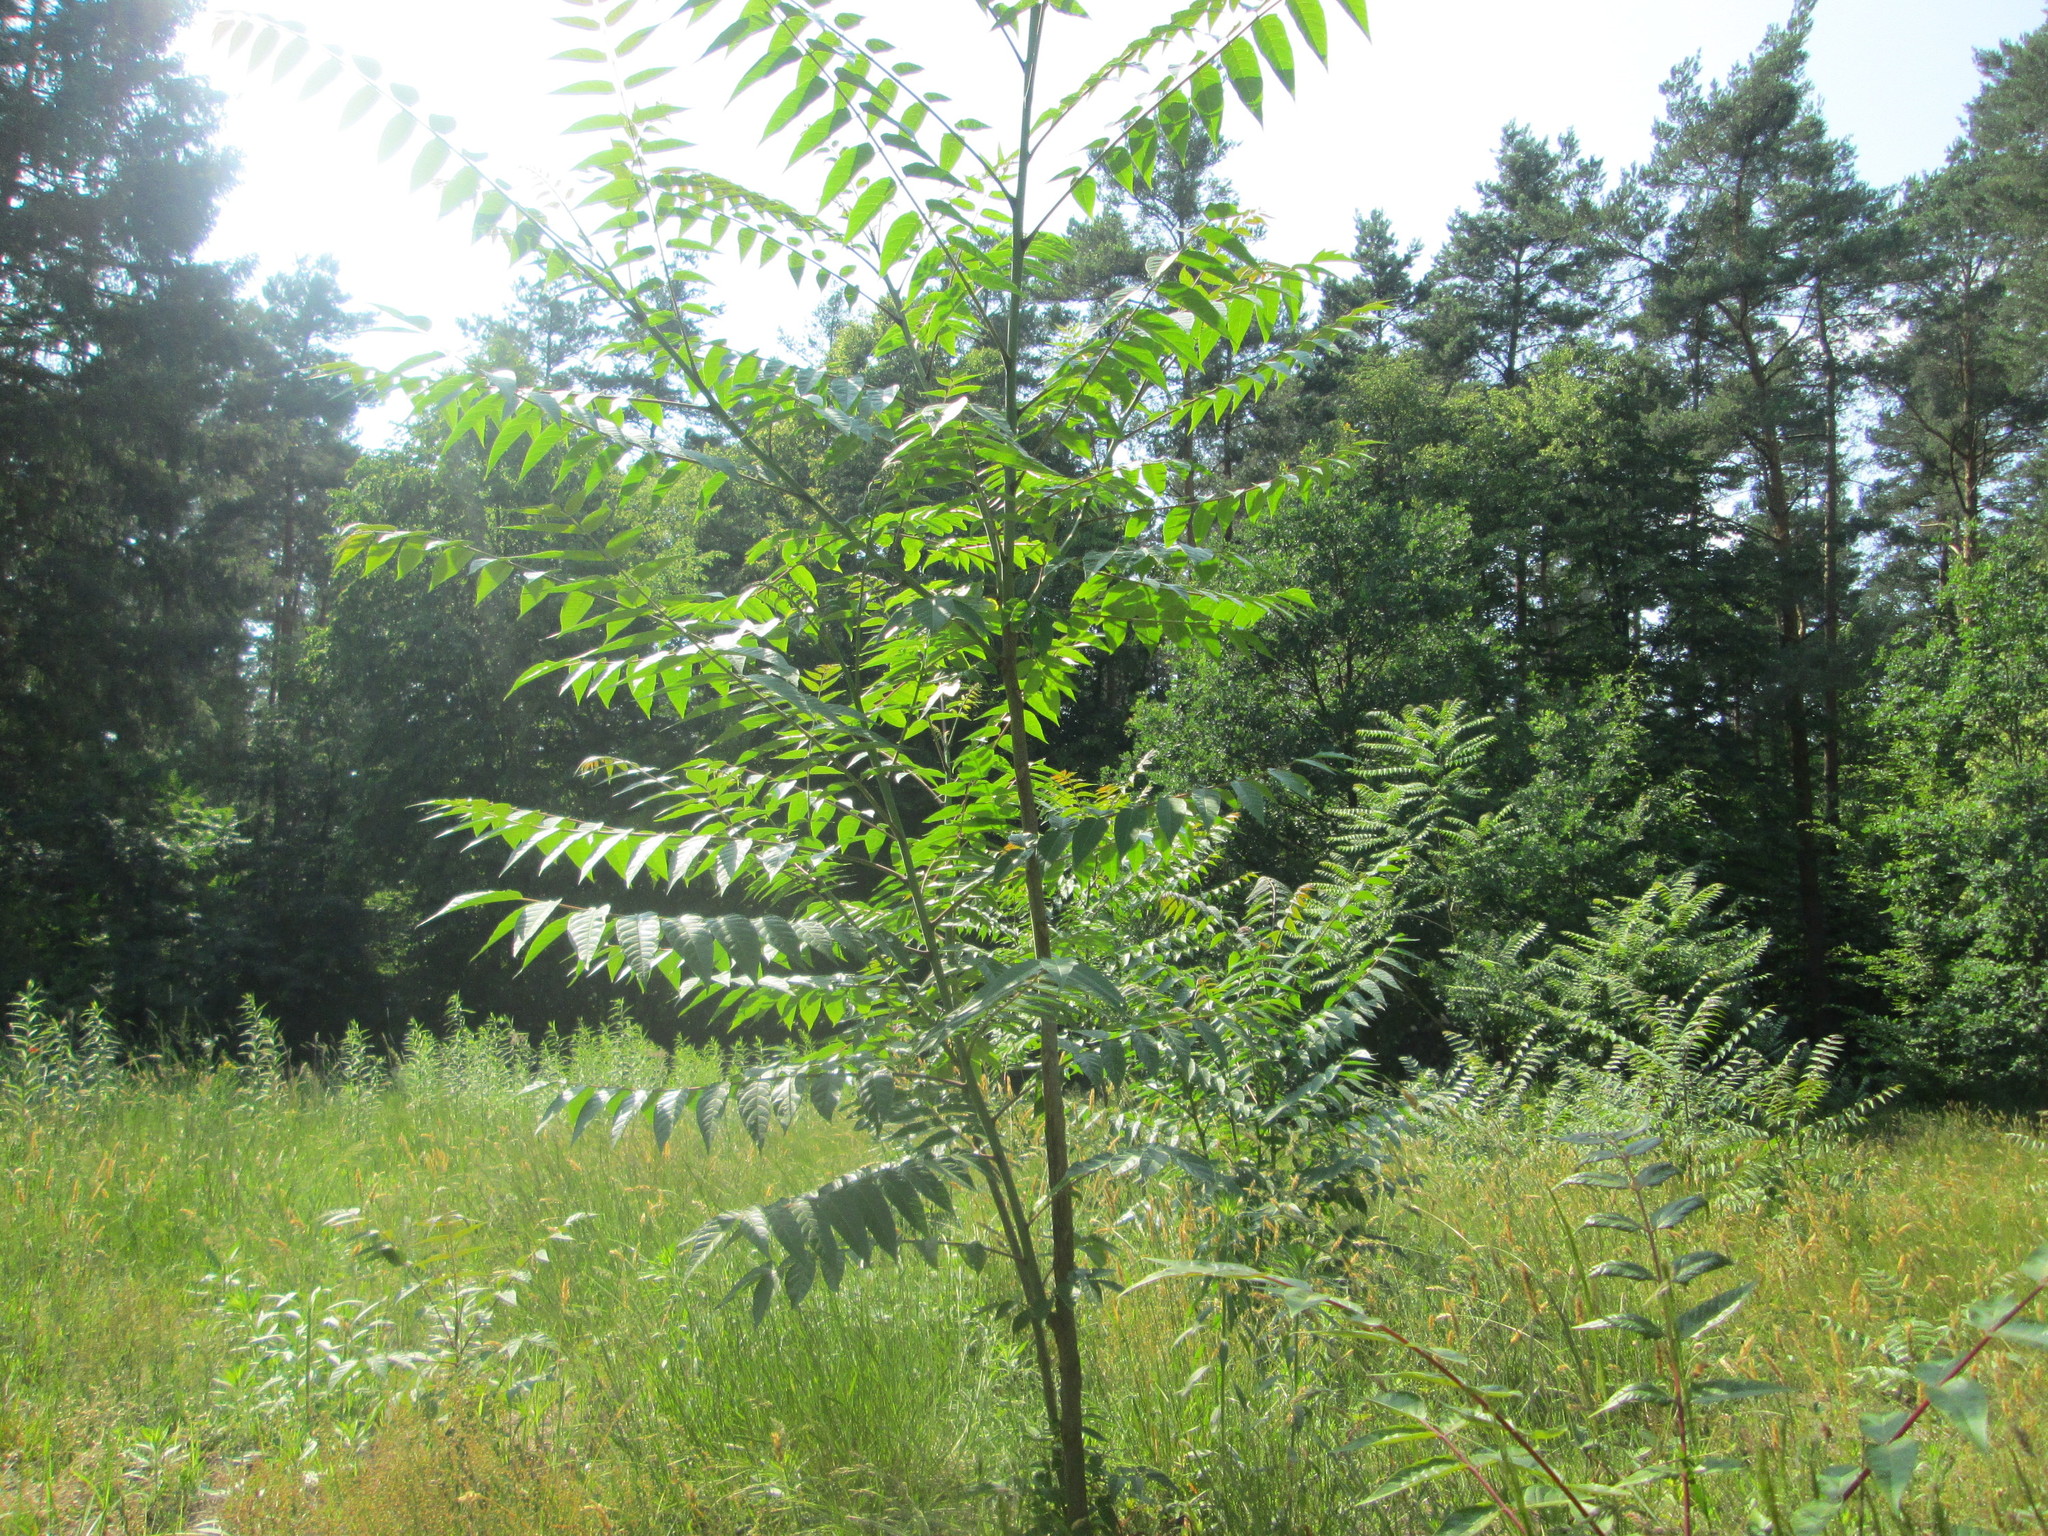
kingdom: Plantae
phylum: Tracheophyta
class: Magnoliopsida
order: Sapindales
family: Simaroubaceae
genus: Ailanthus
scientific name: Ailanthus altissima
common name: Tree-of-heaven
